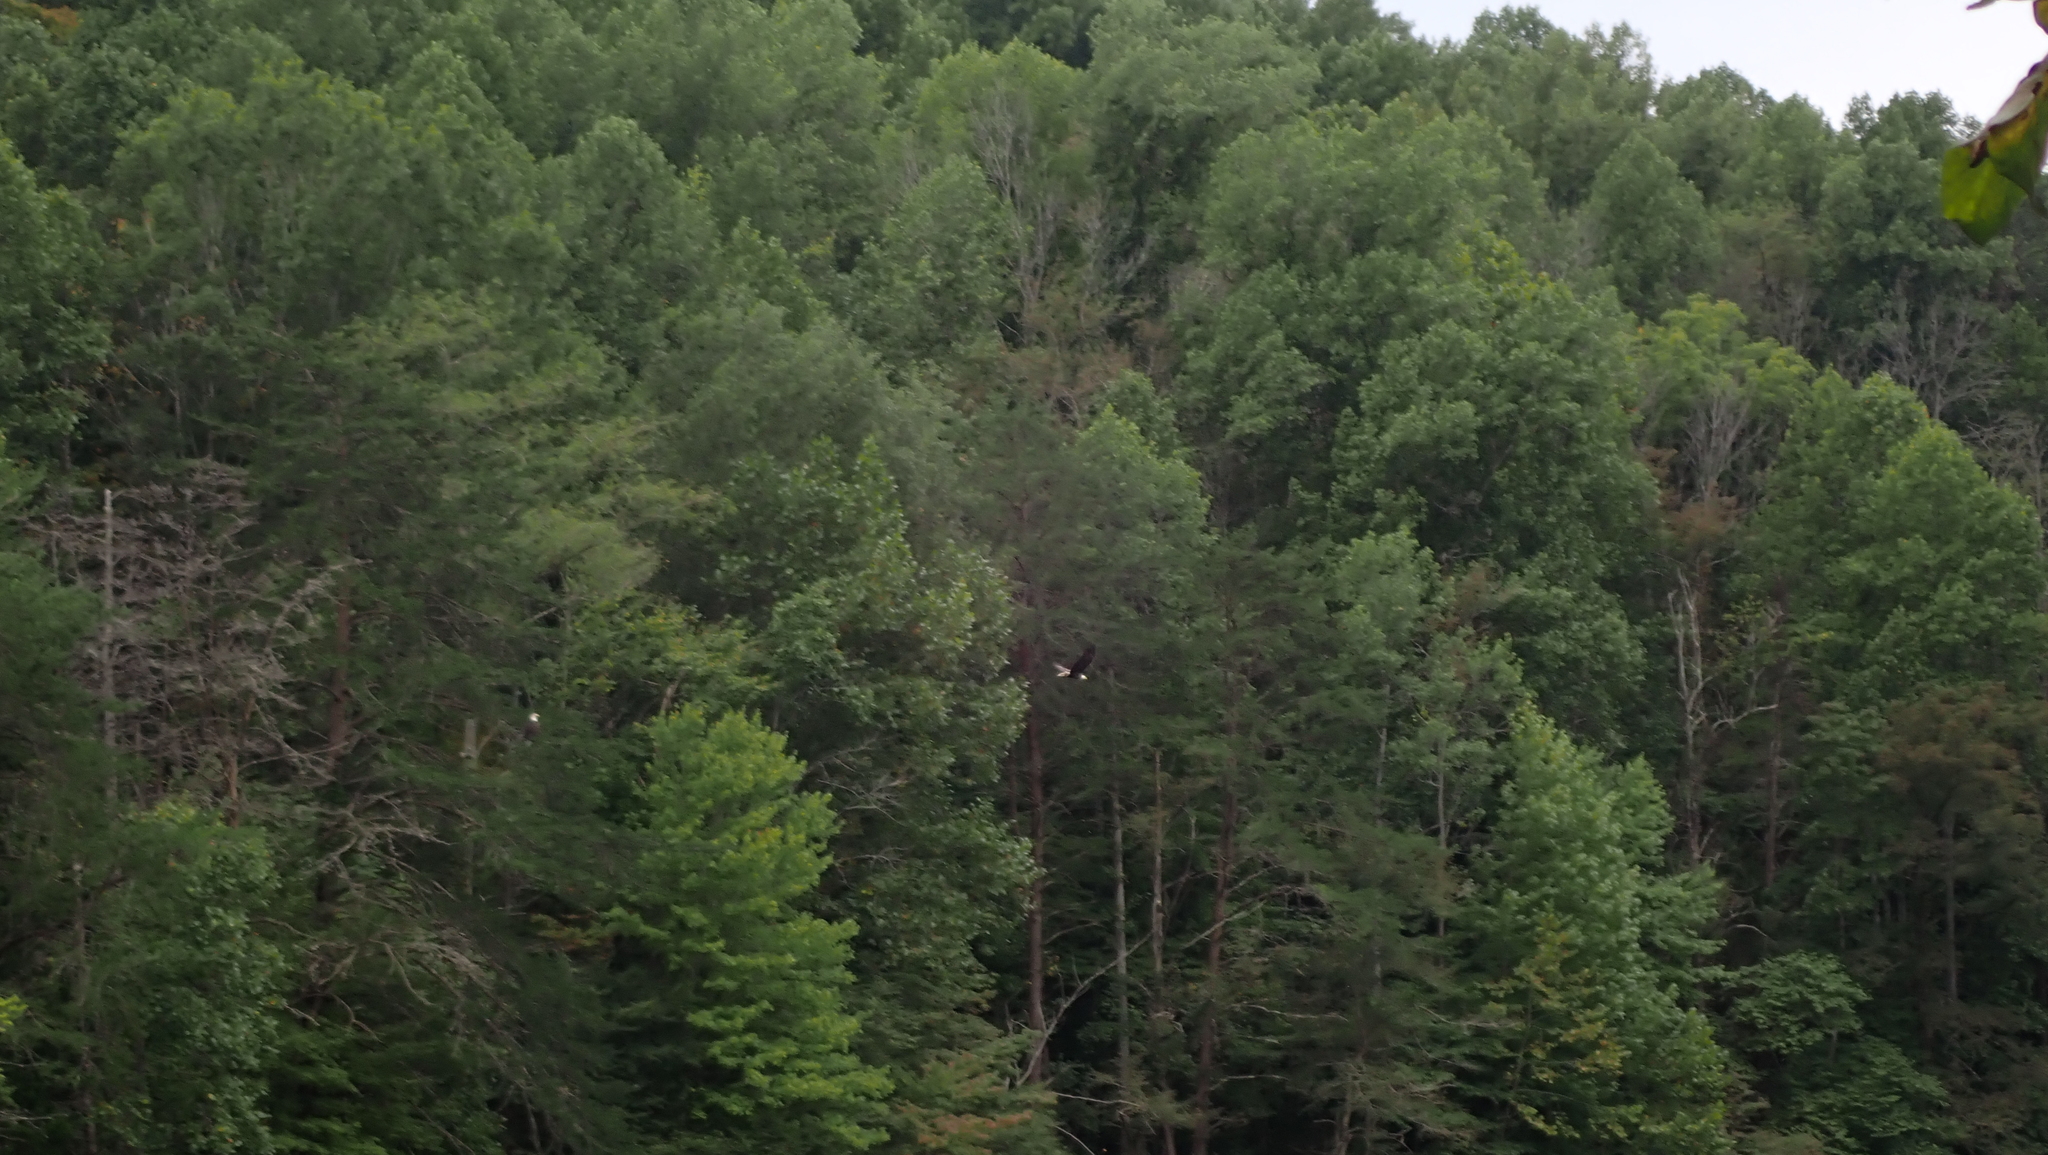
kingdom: Animalia
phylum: Chordata
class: Aves
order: Accipitriformes
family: Accipitridae
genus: Haliaeetus
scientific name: Haliaeetus leucocephalus
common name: Bald eagle
